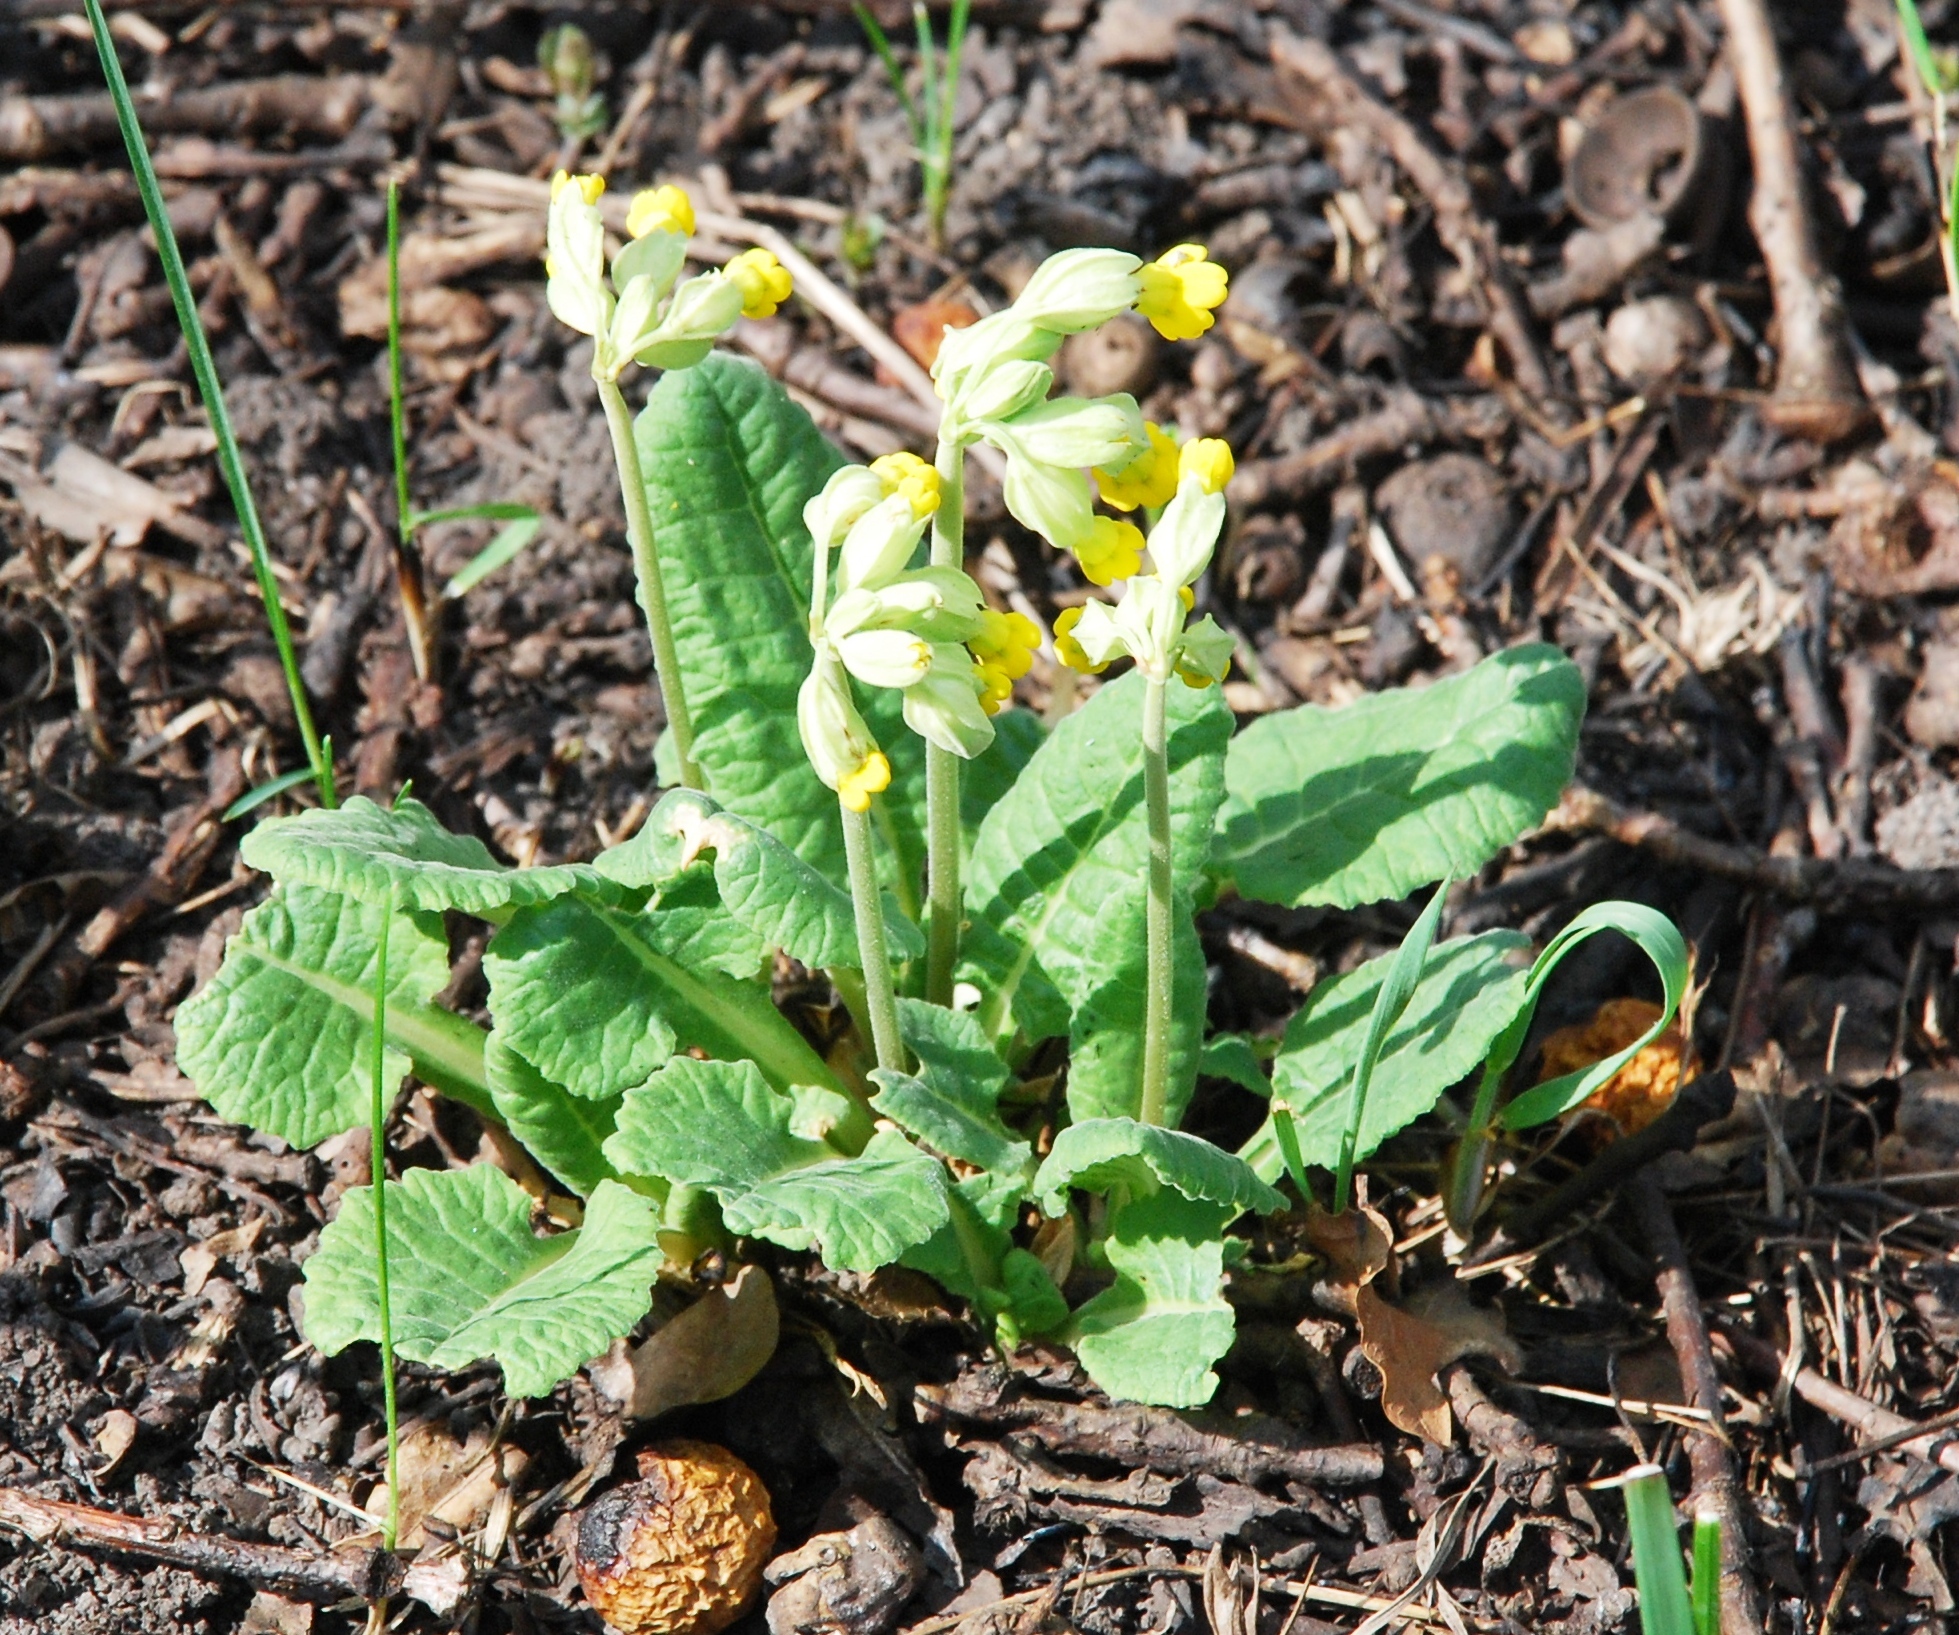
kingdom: Plantae
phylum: Tracheophyta
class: Magnoliopsida
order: Ericales
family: Primulaceae
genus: Primula
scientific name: Primula veris
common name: Cowslip
